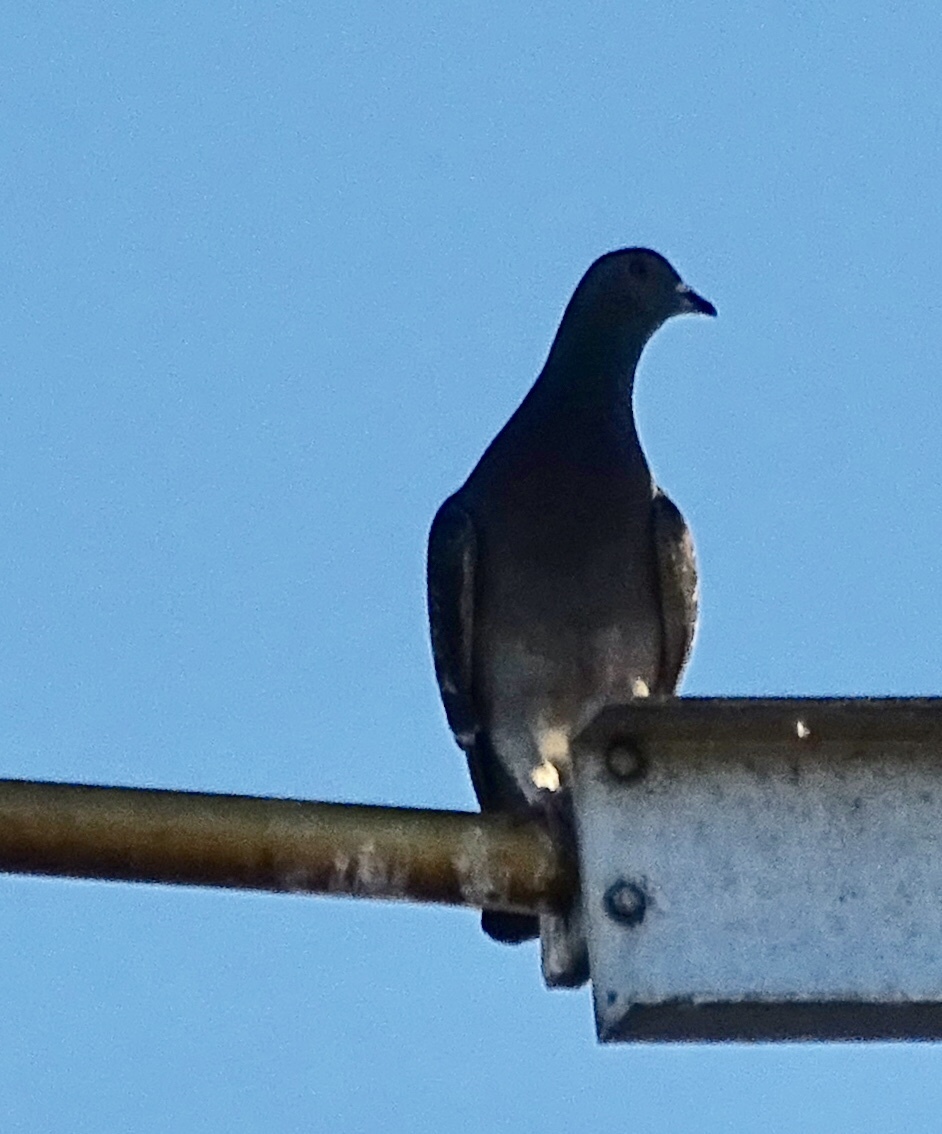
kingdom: Animalia
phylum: Chordata
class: Aves
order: Columbiformes
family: Columbidae
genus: Columba
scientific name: Columba livia
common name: Rock pigeon
